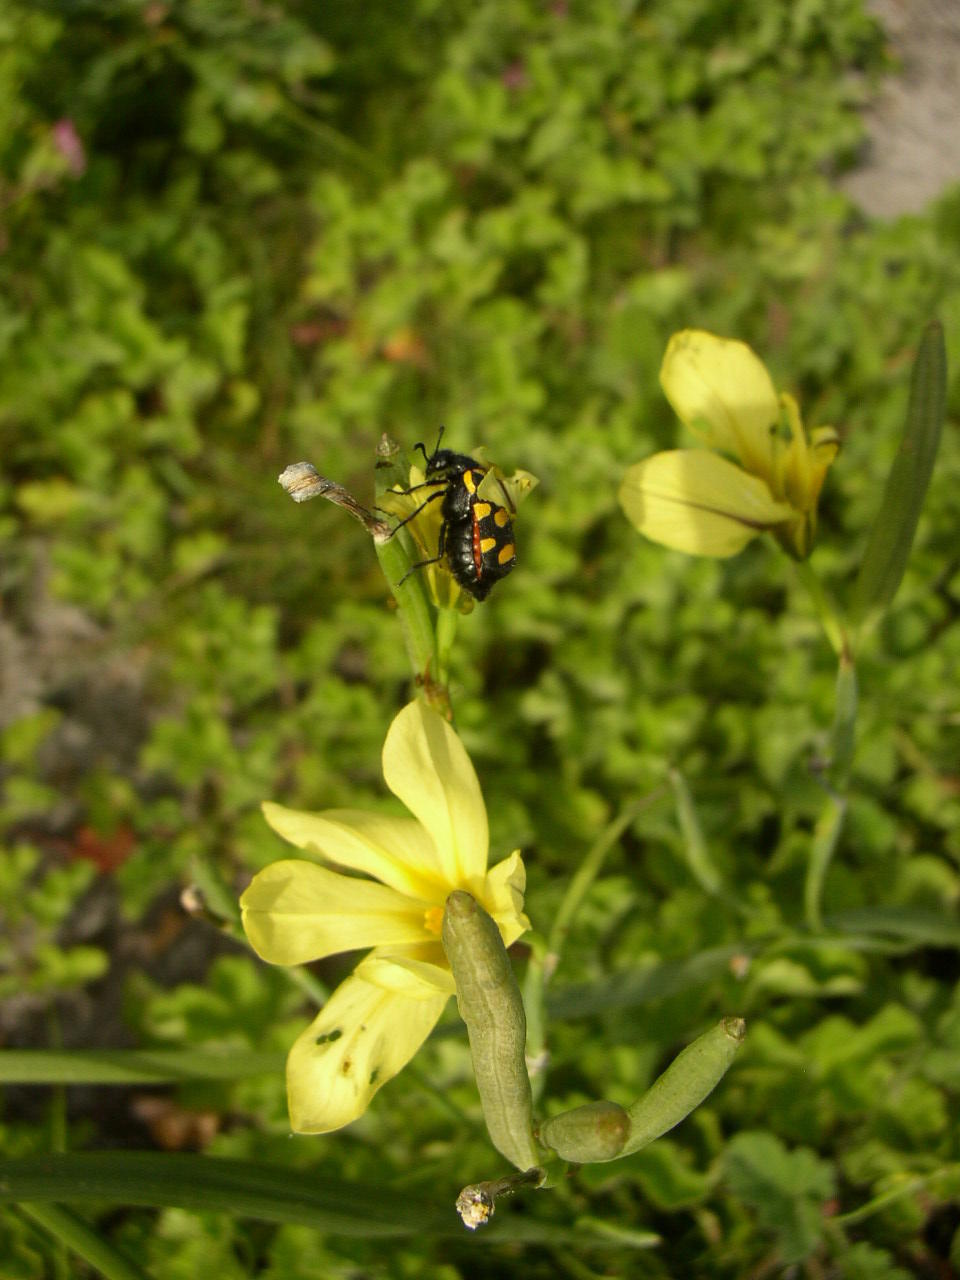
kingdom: Plantae
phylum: Tracheophyta
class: Liliopsida
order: Asparagales
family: Iridaceae
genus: Moraea
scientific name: Moraea collina
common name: Cape-tulip
